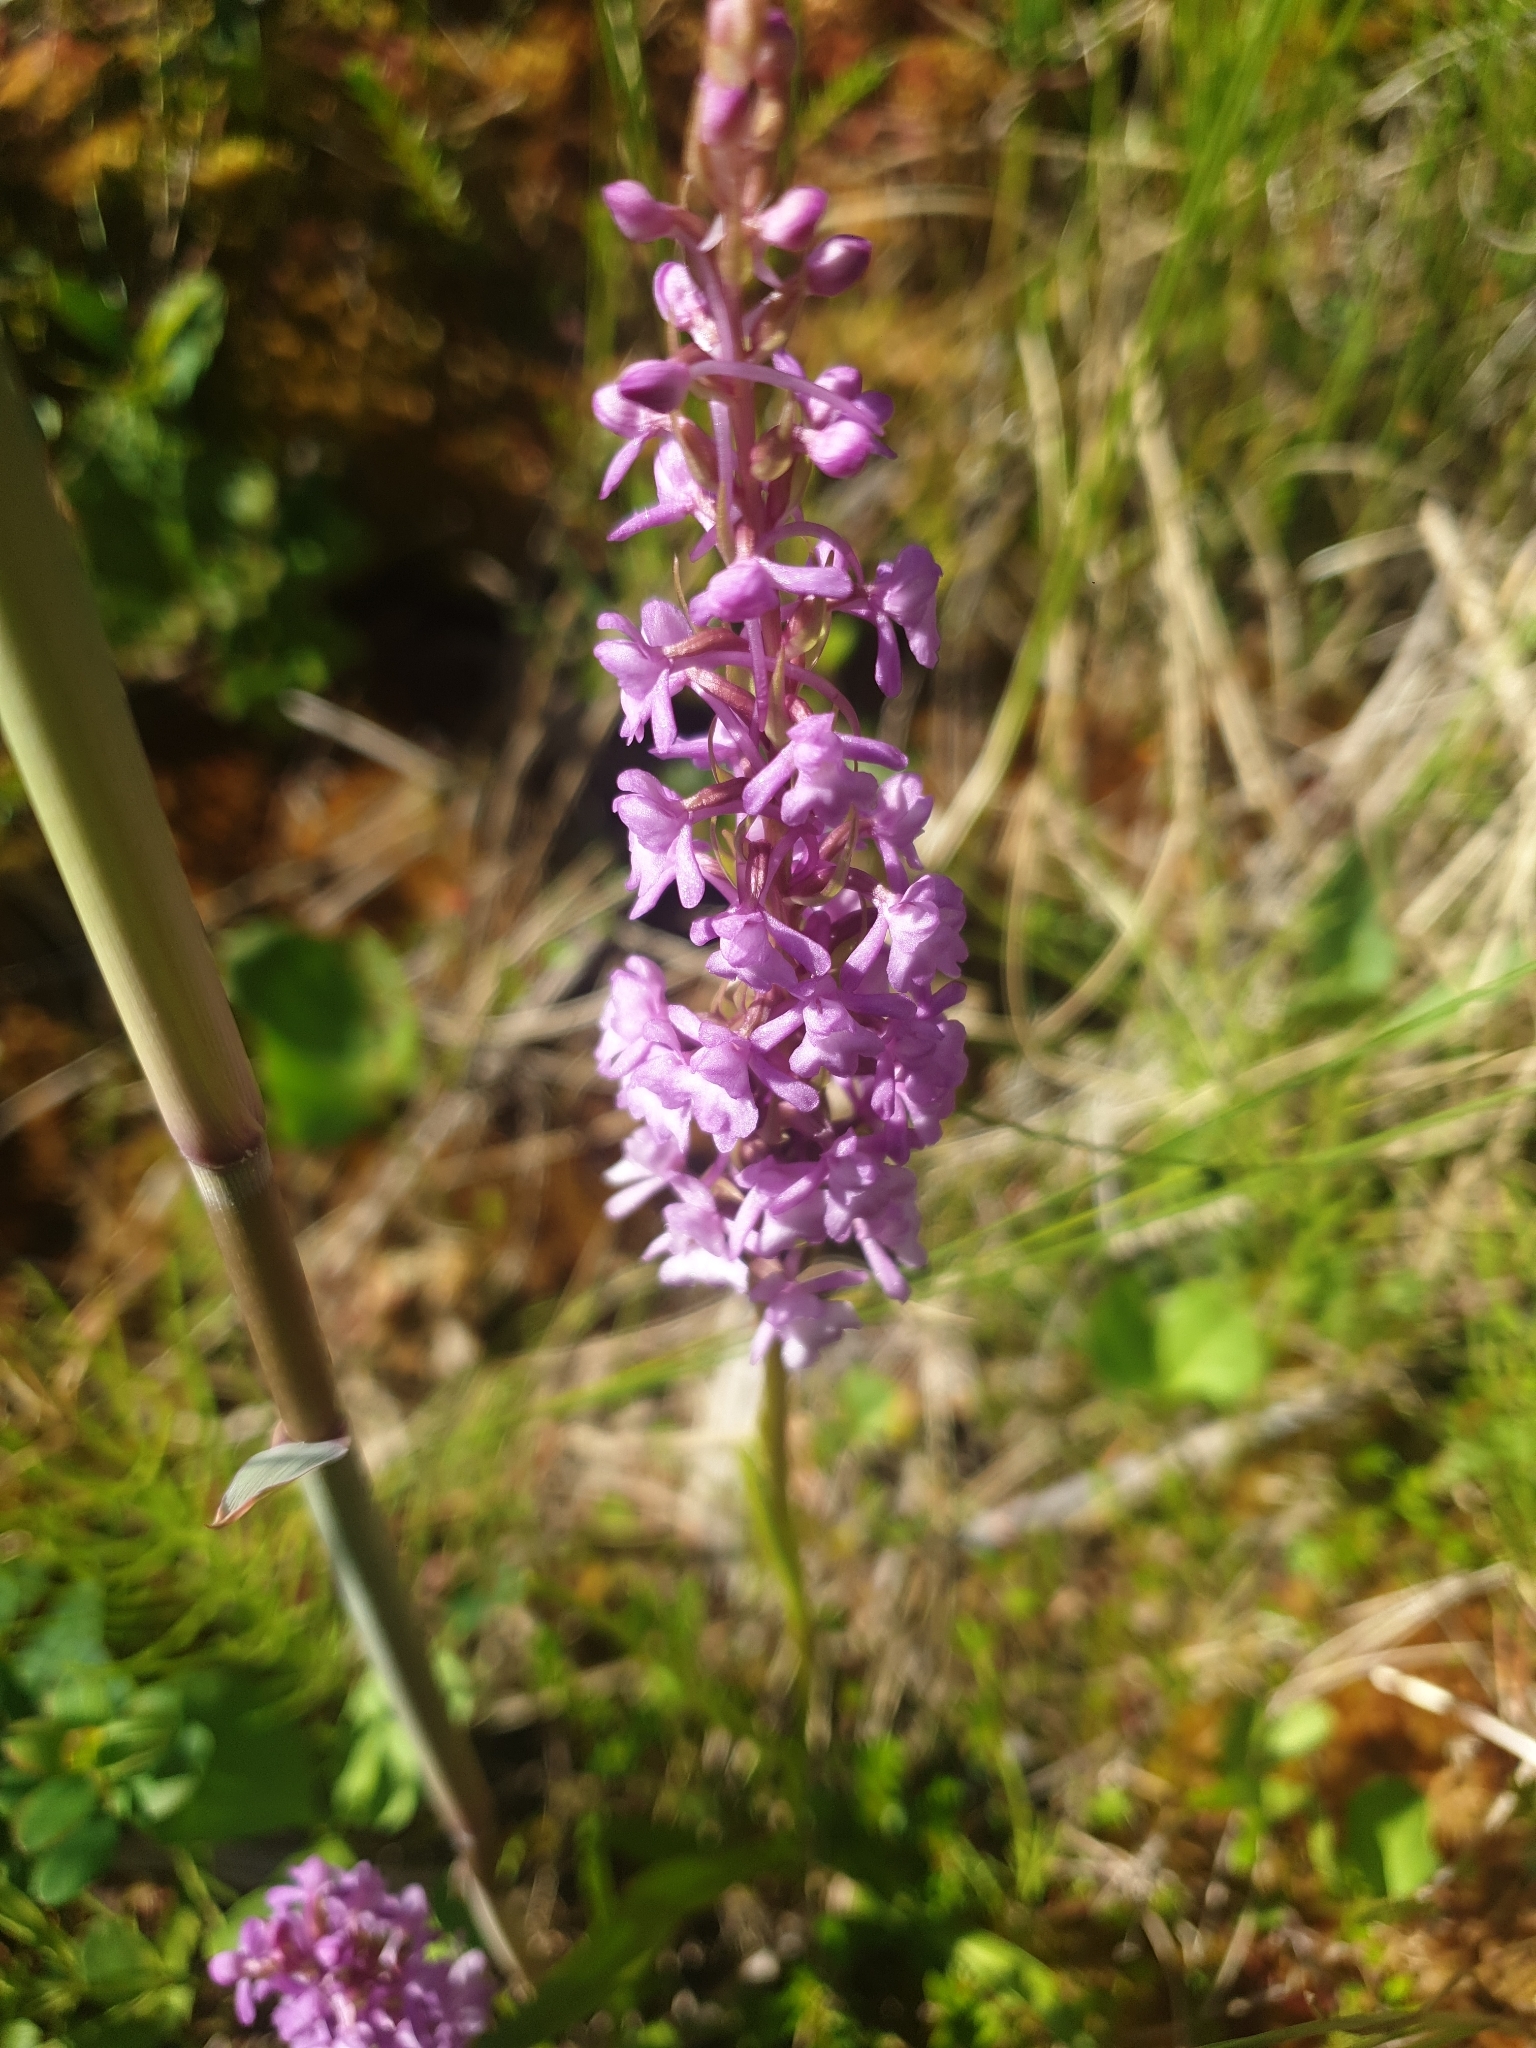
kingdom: Plantae
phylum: Tracheophyta
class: Liliopsida
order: Asparagales
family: Orchidaceae
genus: Gymnadenia
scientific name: Gymnadenia conopsea
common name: Fragrant orchid
